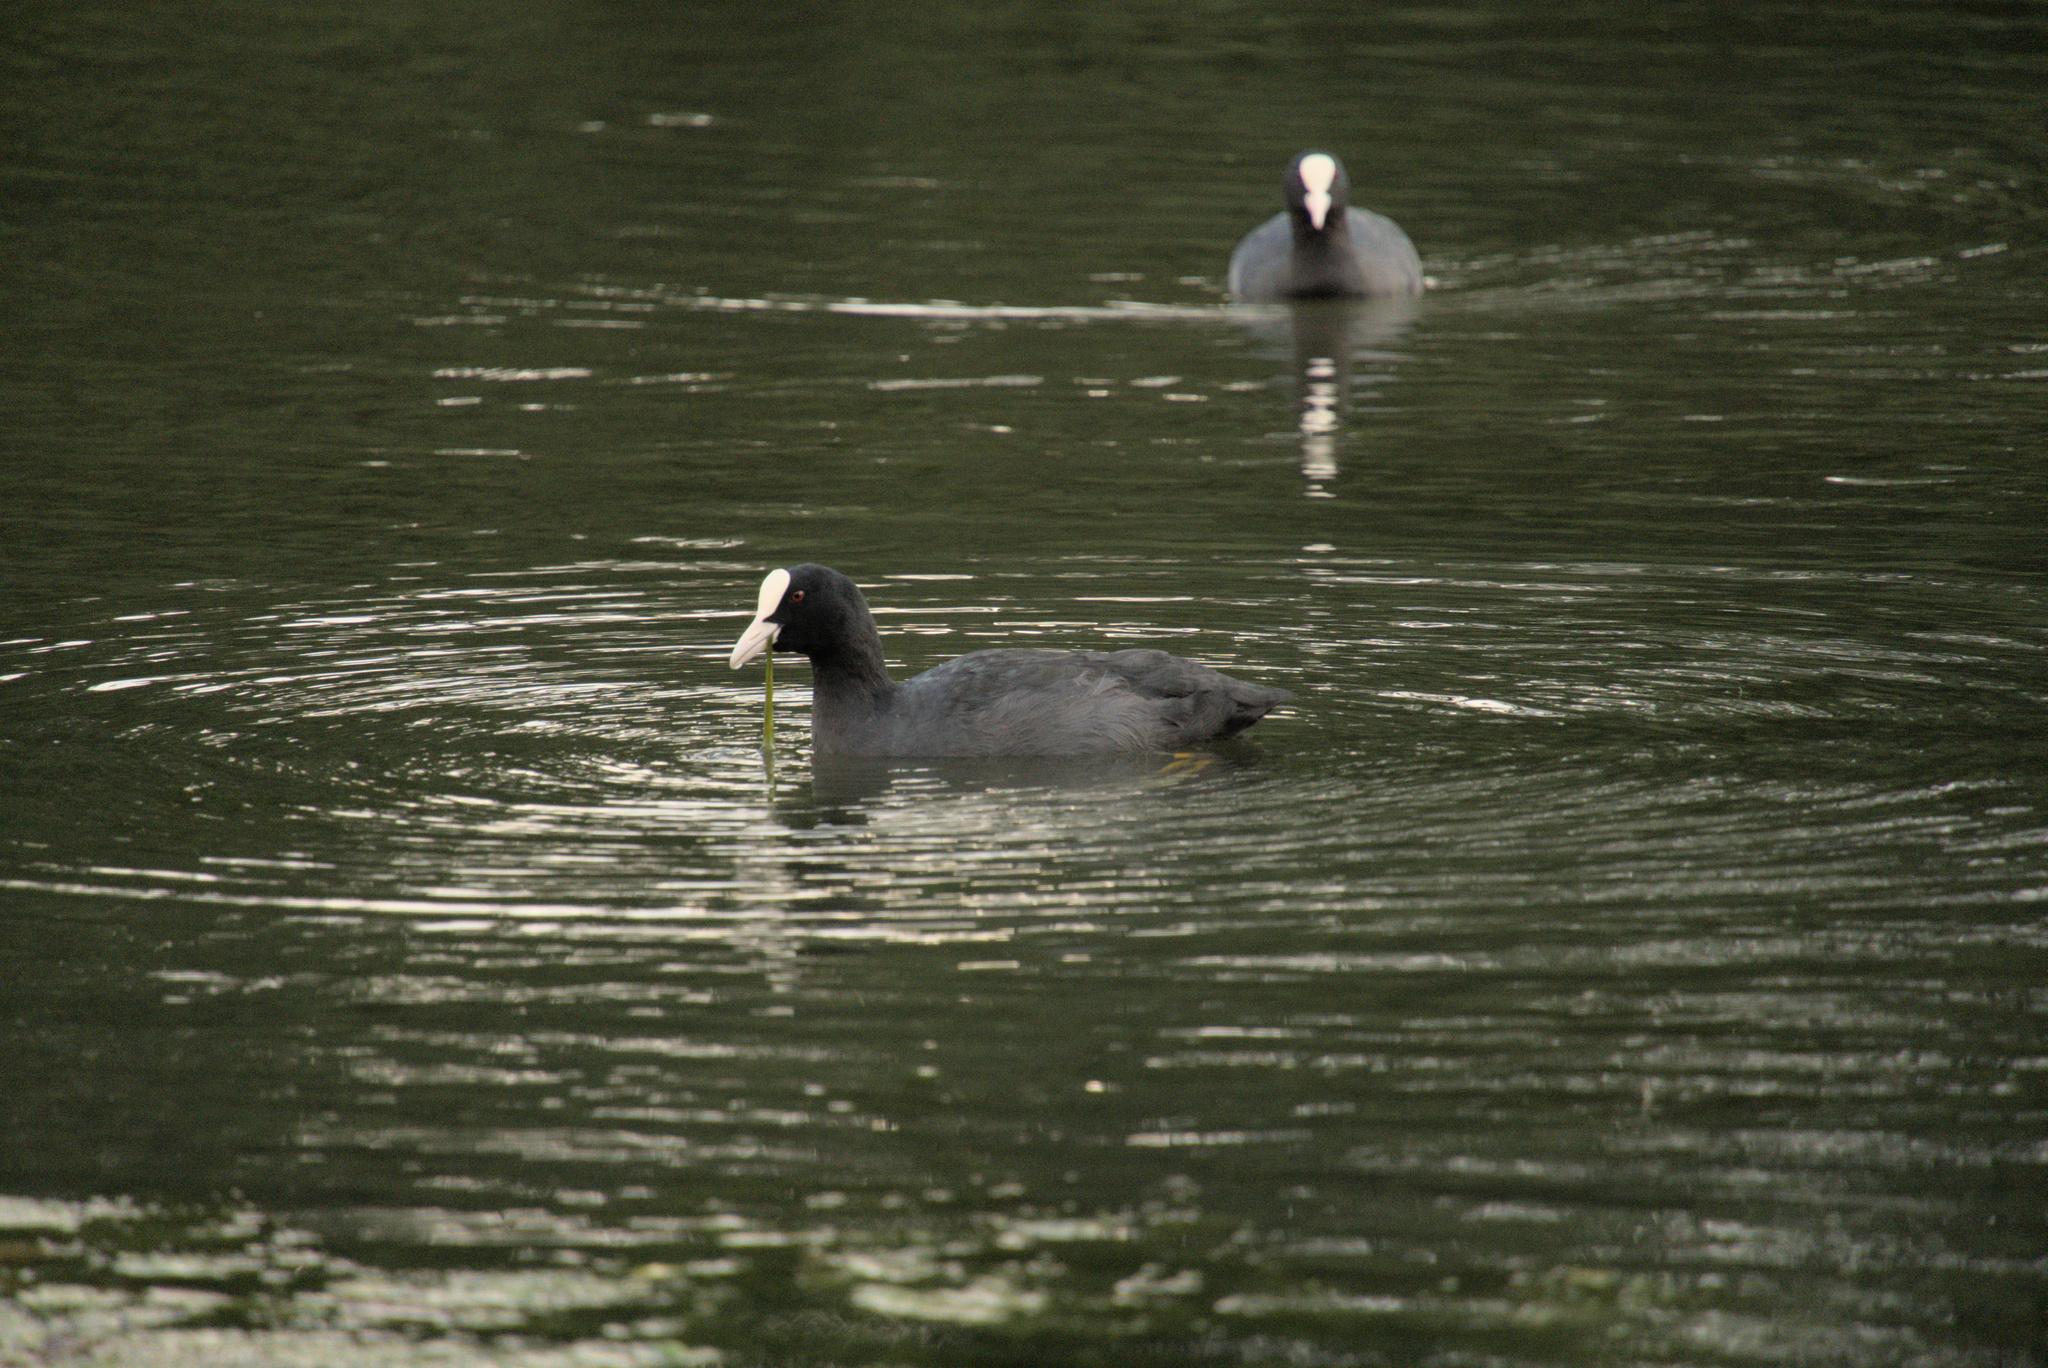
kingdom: Animalia
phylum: Chordata
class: Aves
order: Gruiformes
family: Rallidae
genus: Fulica
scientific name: Fulica atra
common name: Eurasian coot
